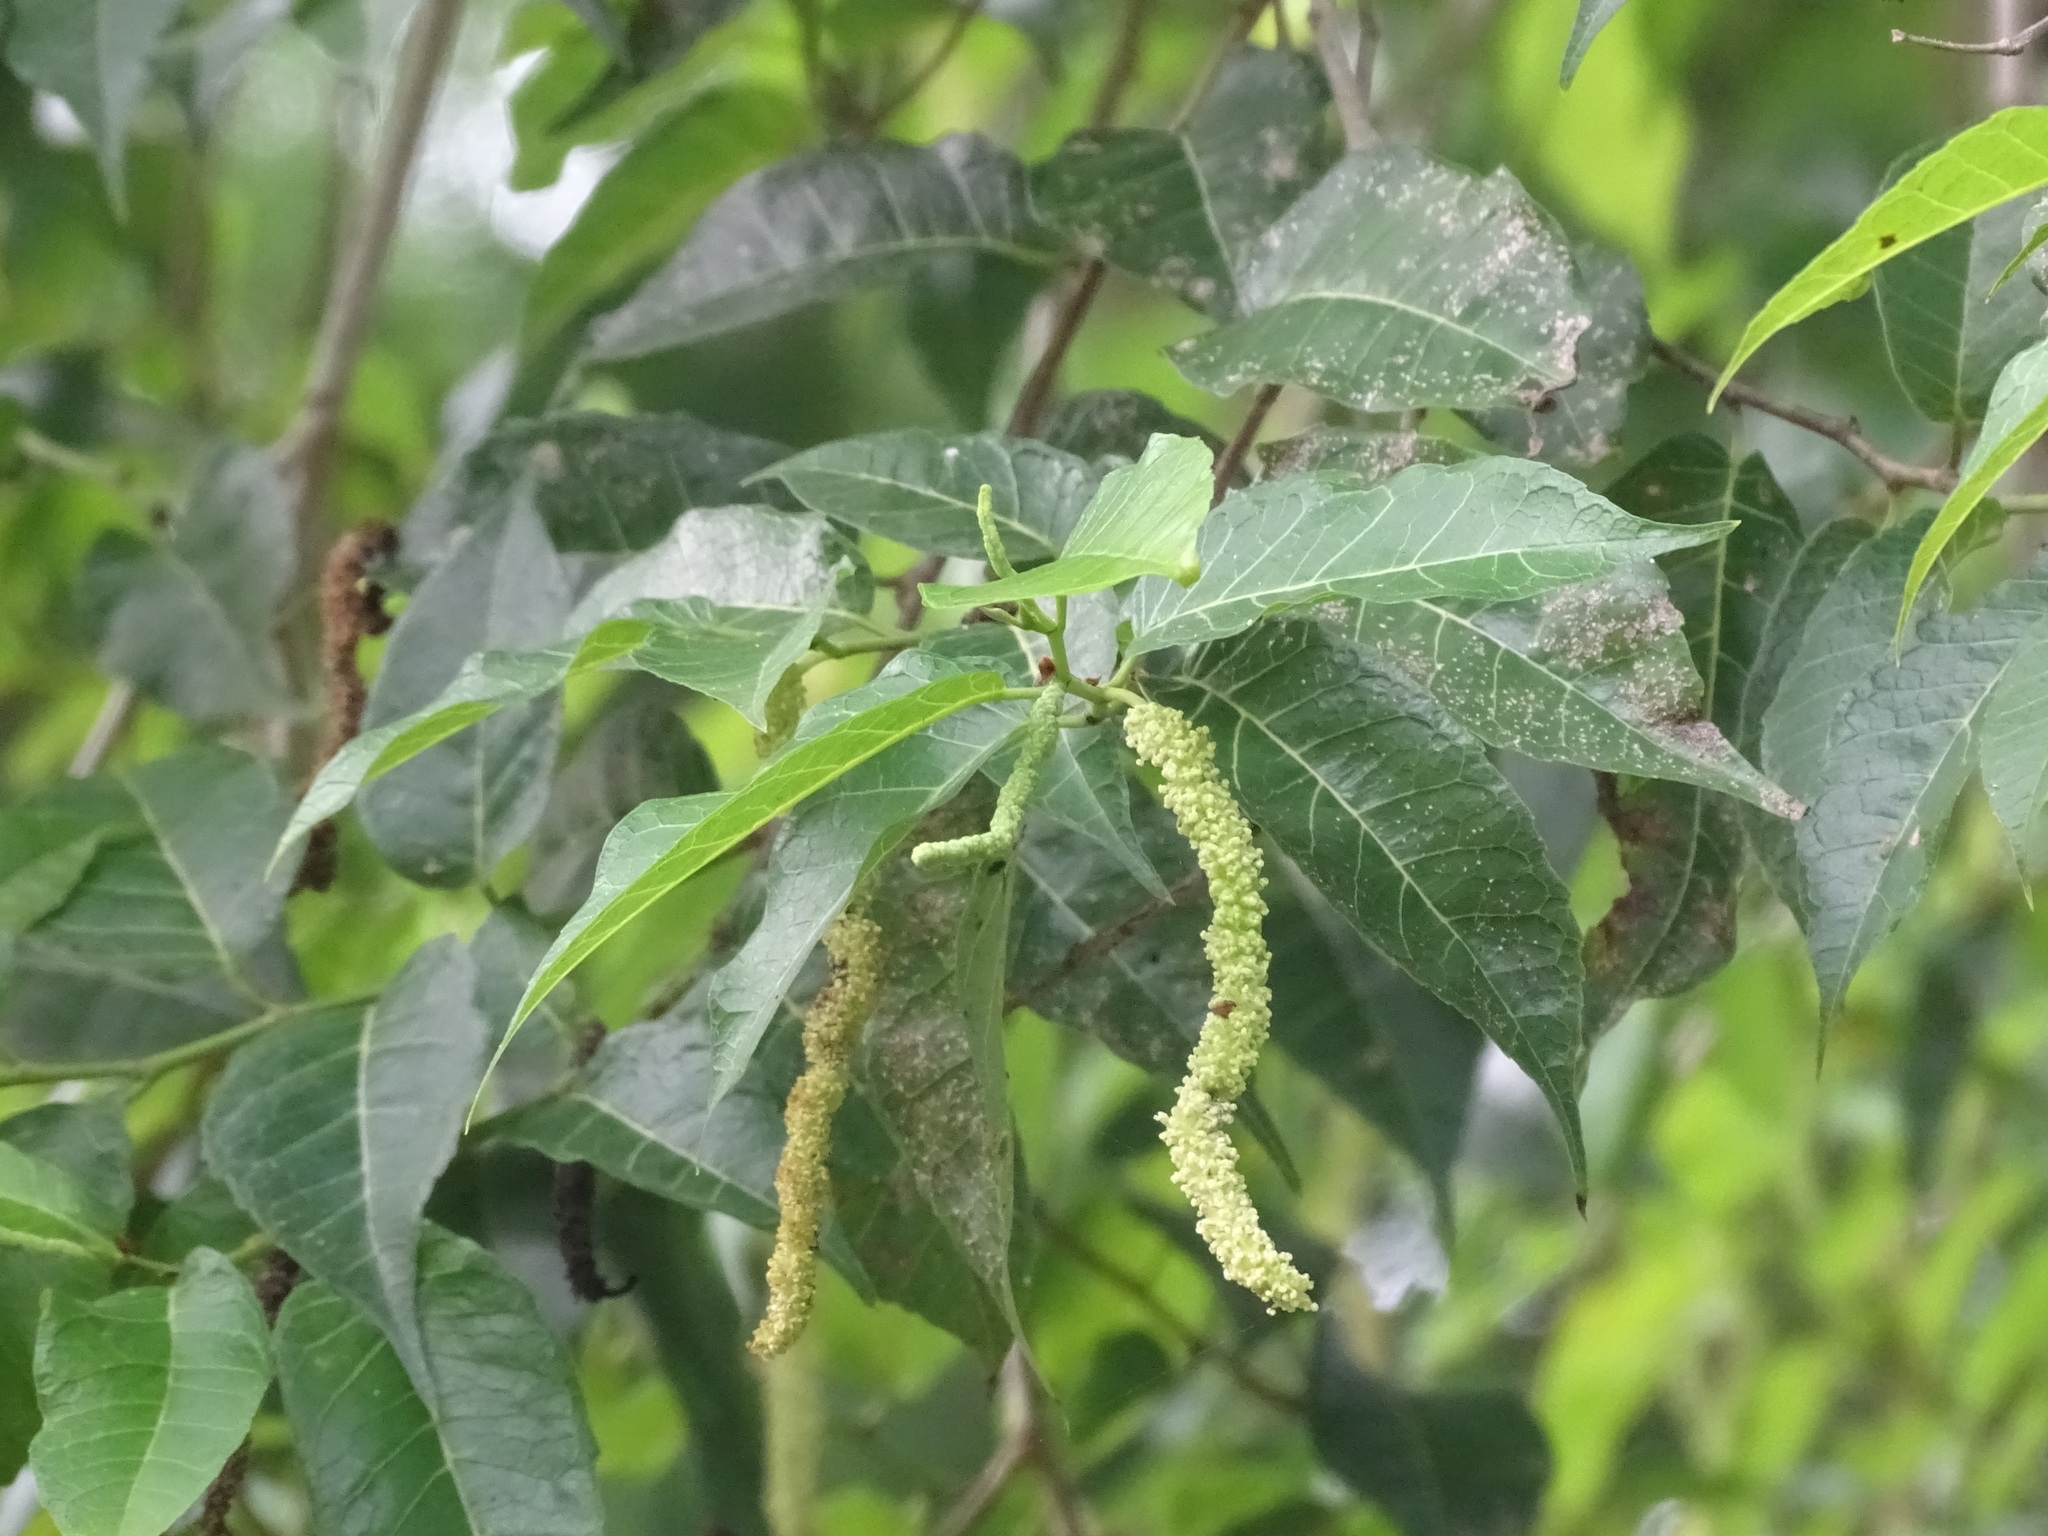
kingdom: Plantae
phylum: Tracheophyta
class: Magnoliopsida
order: Rosales
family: Moraceae
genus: Maclura
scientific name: Maclura tinctoria
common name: Old fustic
